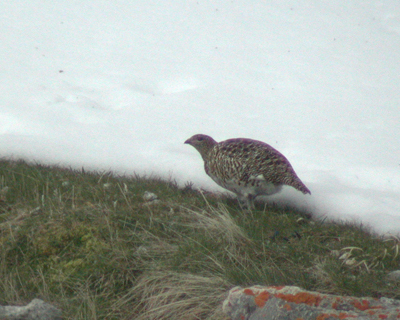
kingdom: Animalia
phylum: Chordata
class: Aves
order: Galliformes
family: Phasianidae
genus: Lagopus
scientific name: Lagopus muta
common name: Rock ptarmigan
